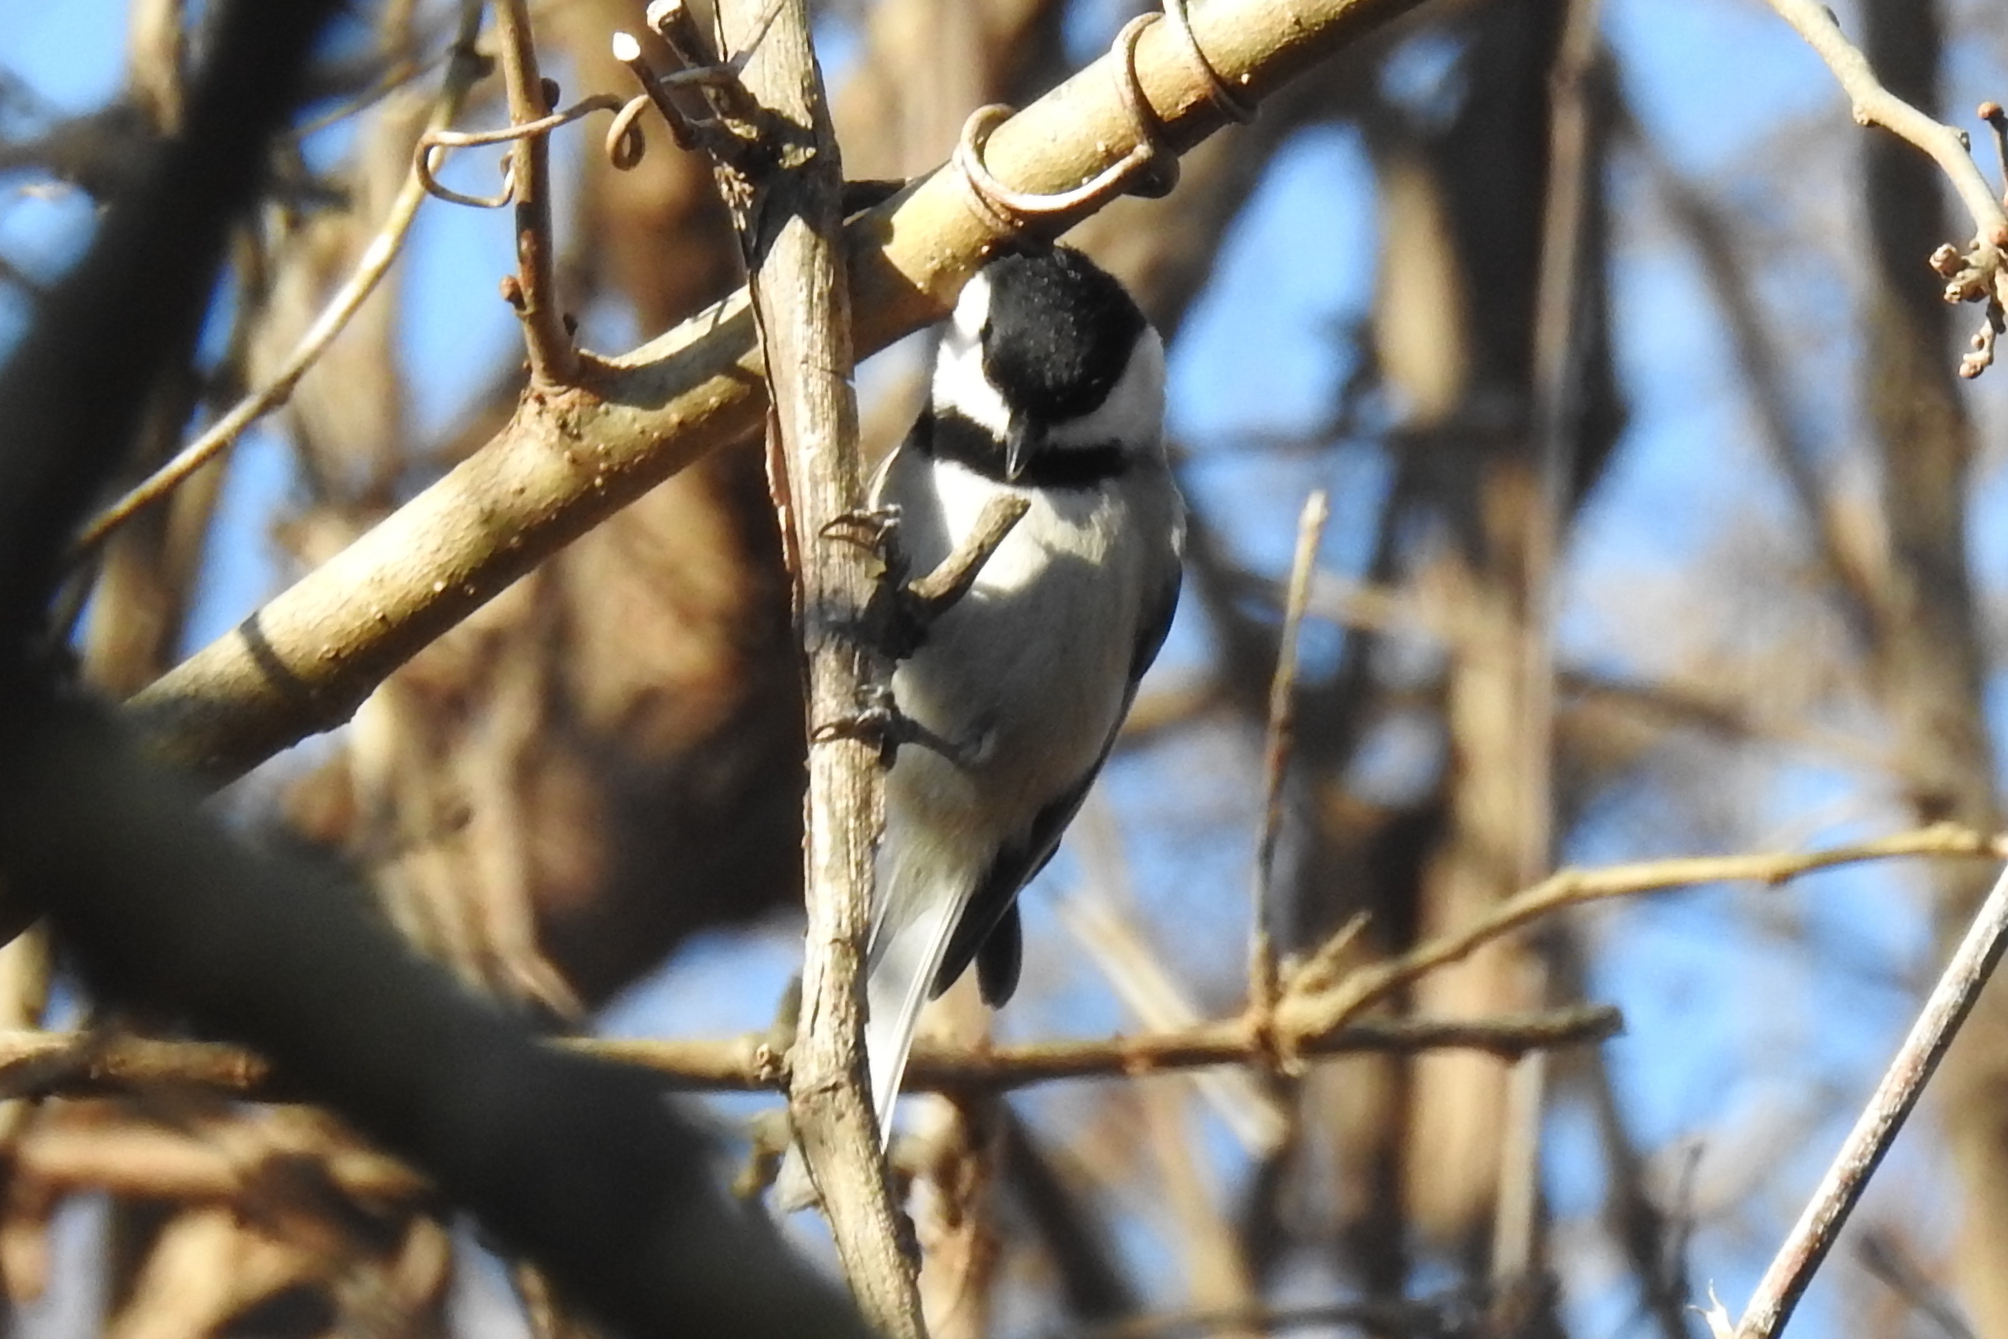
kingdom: Animalia
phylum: Chordata
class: Aves
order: Passeriformes
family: Paridae
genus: Poecile
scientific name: Poecile carolinensis
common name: Carolina chickadee
